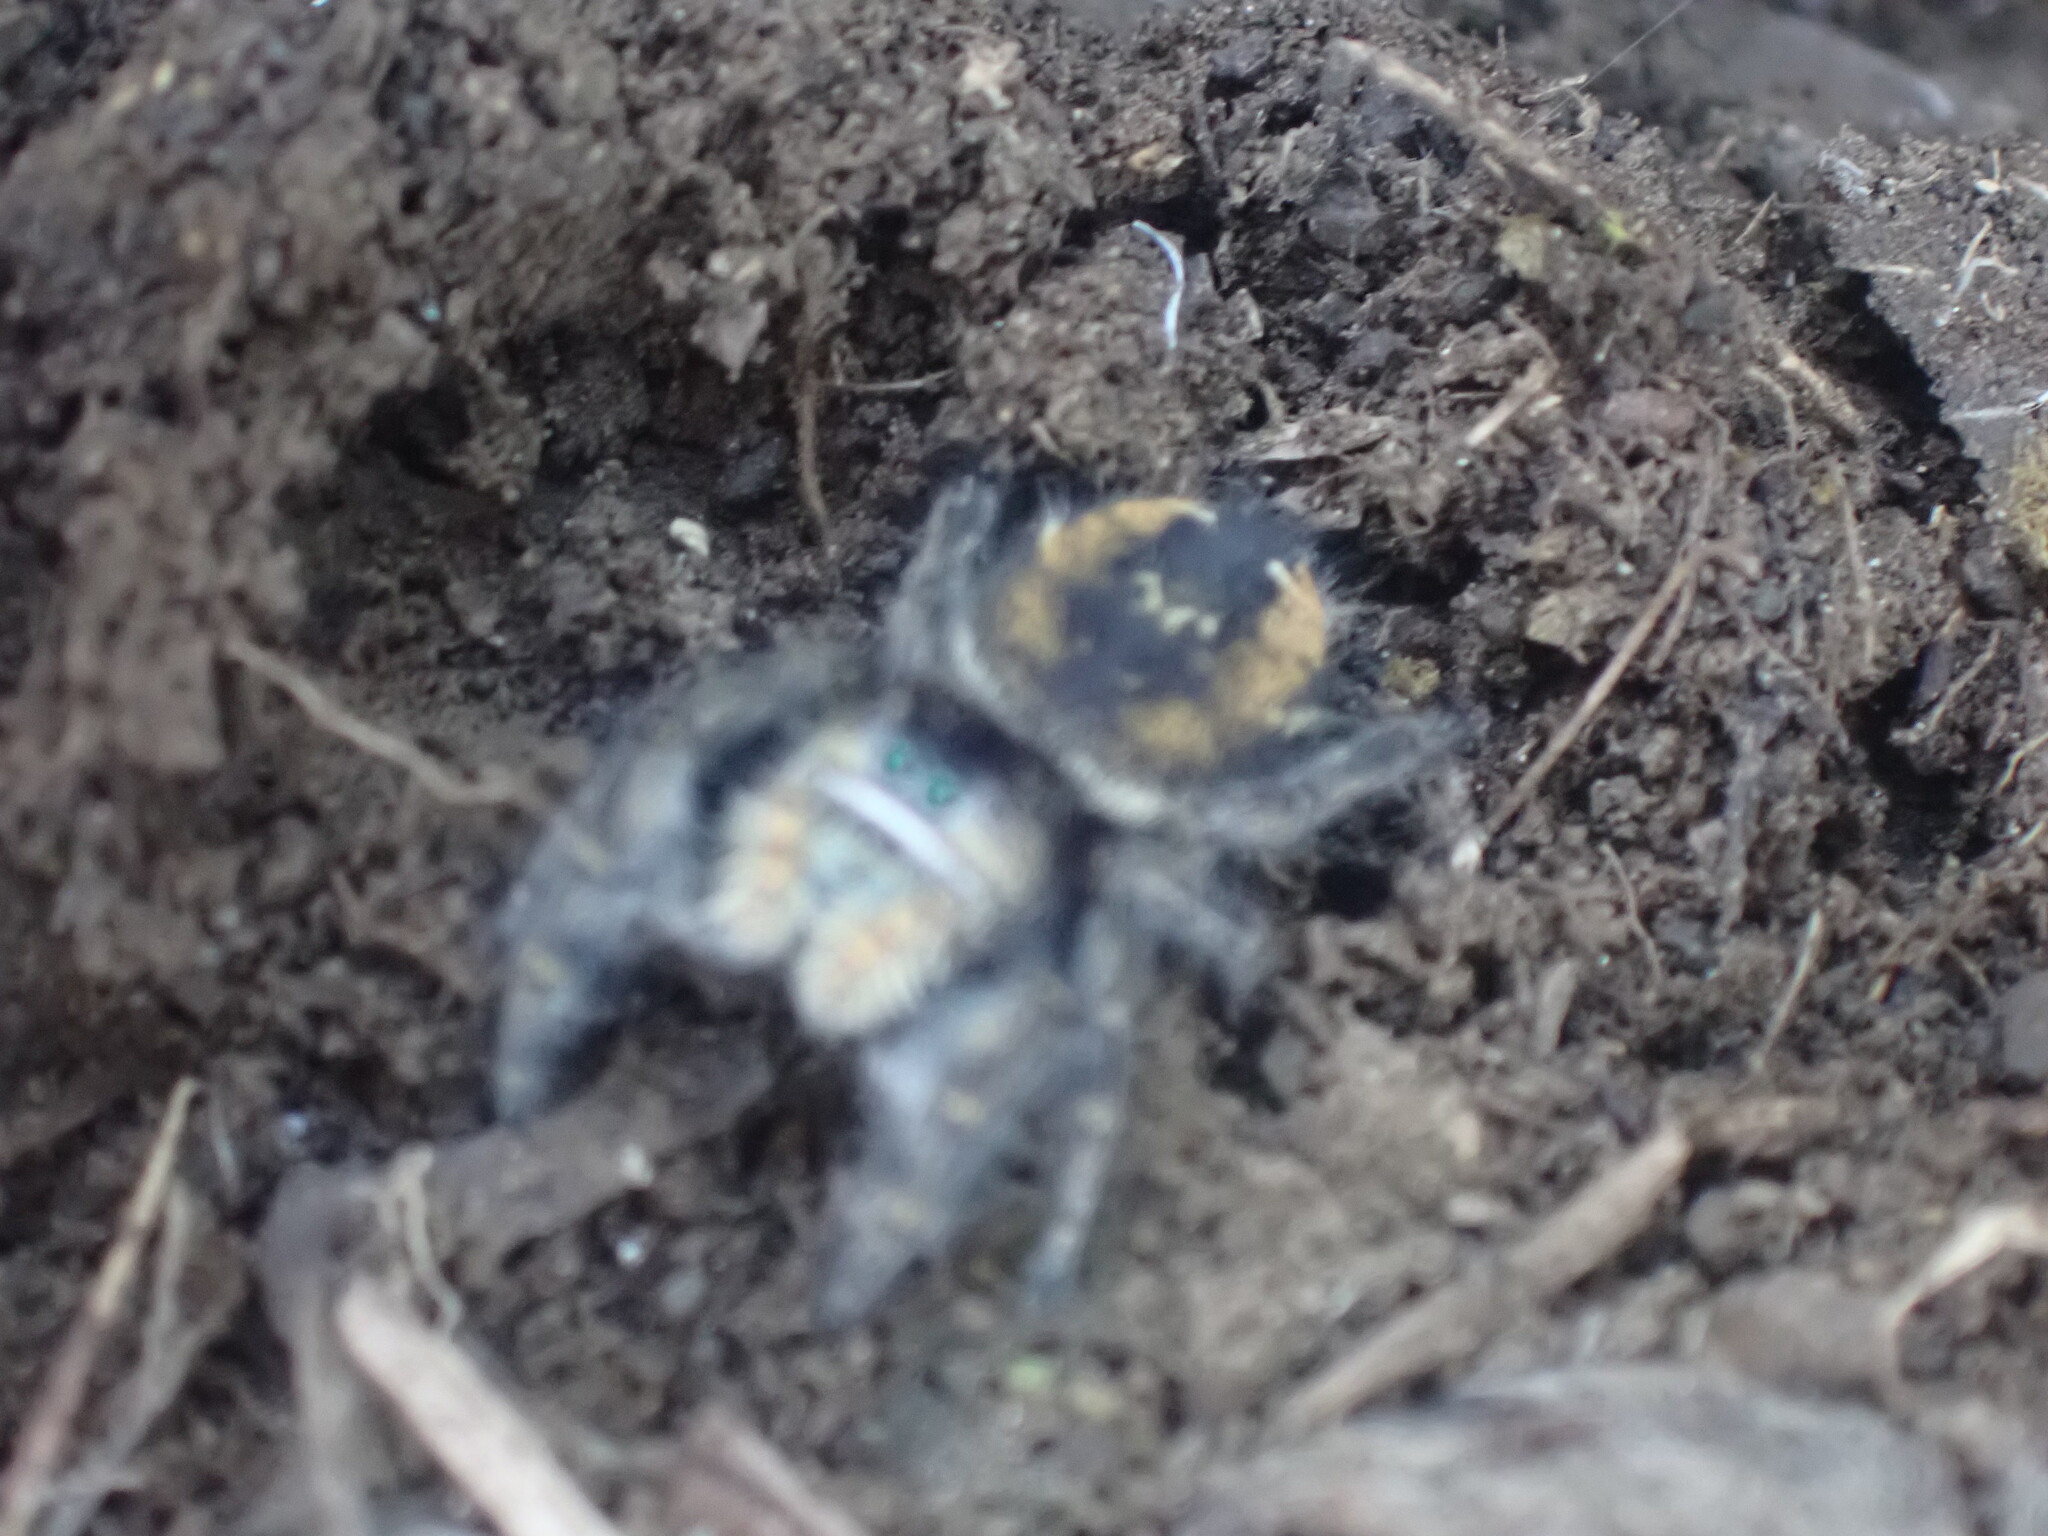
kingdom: Animalia
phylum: Arthropoda
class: Arachnida
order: Araneae
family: Salticidae
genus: Phidippus
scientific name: Phidippus johnsoni
